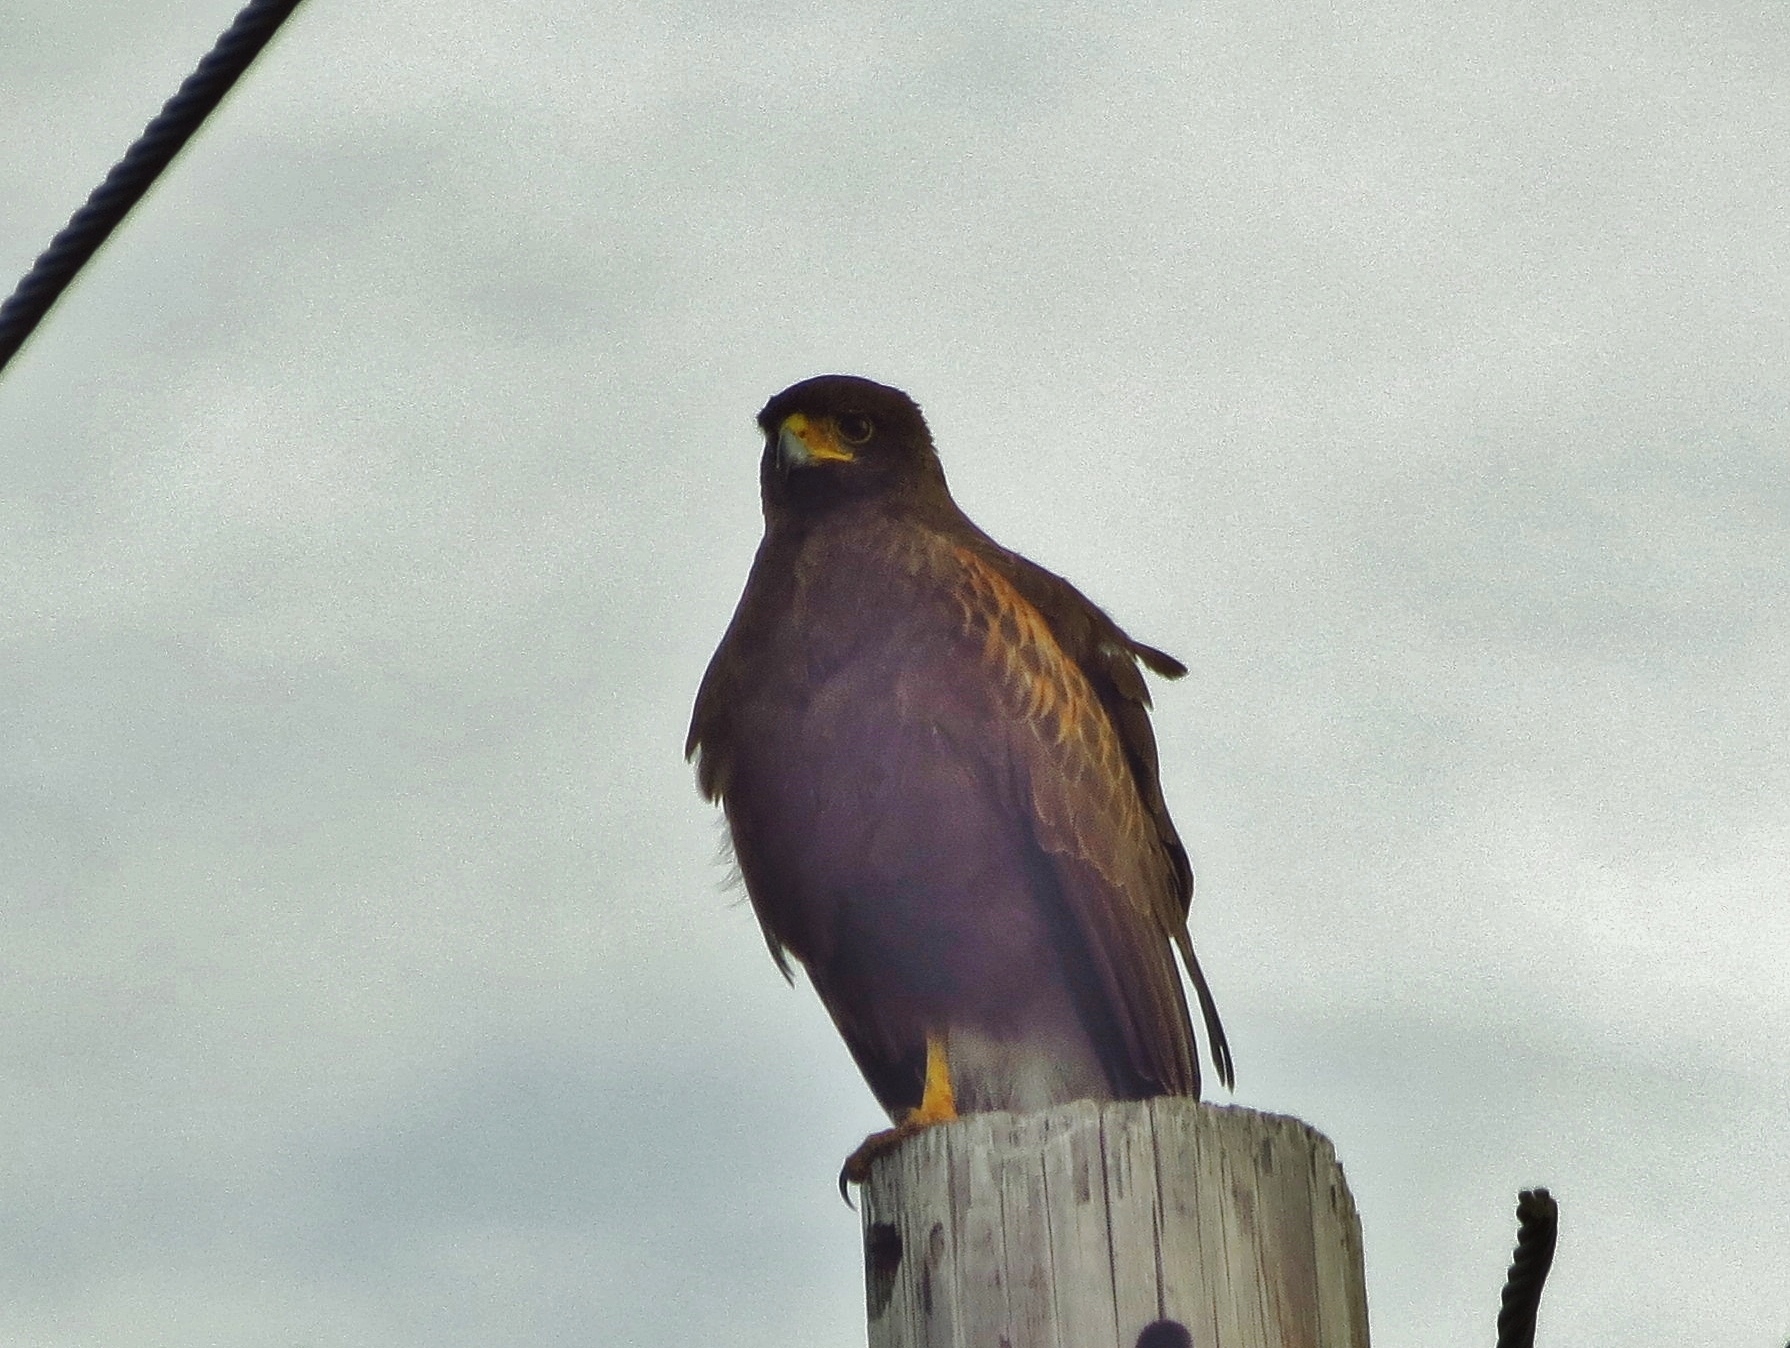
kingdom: Animalia
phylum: Chordata
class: Aves
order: Accipitriformes
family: Accipitridae
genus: Parabuteo
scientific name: Parabuteo unicinctus
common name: Harris's hawk
